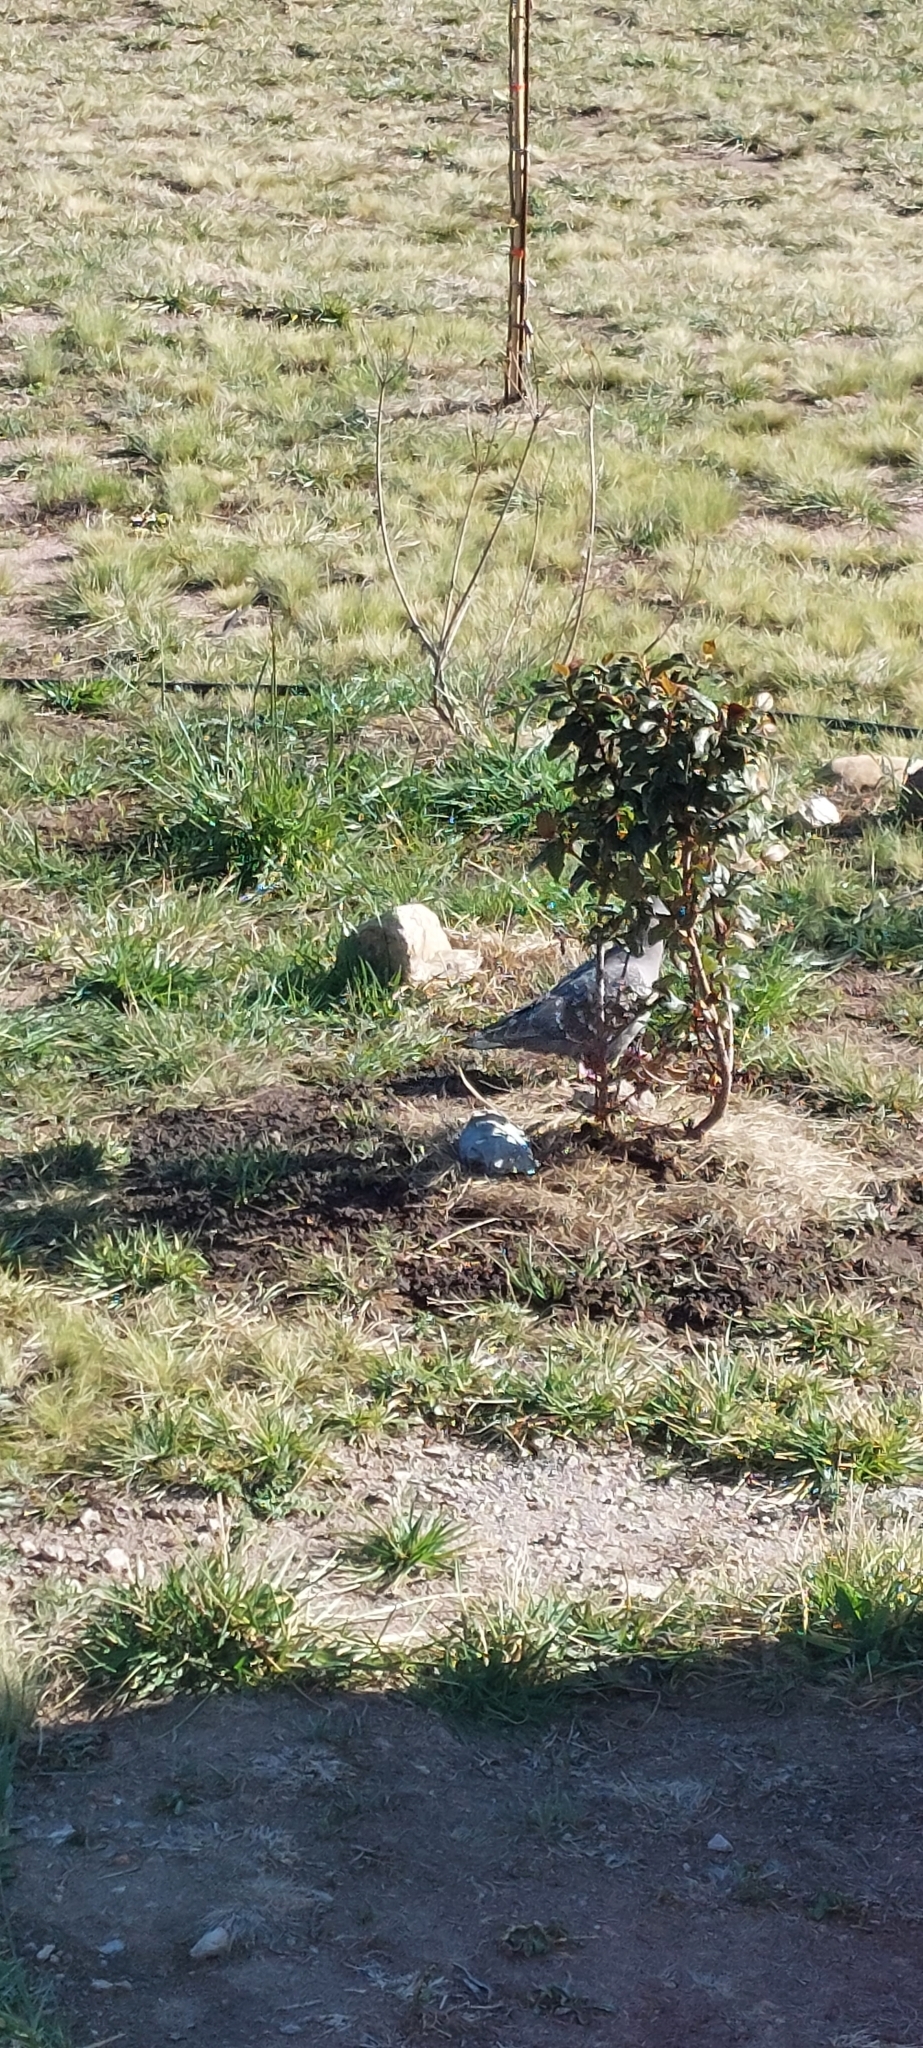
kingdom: Animalia
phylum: Chordata
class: Aves
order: Columbiformes
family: Columbidae
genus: Patagioenas
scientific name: Patagioenas maculosa
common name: Spot-winged pigeon
